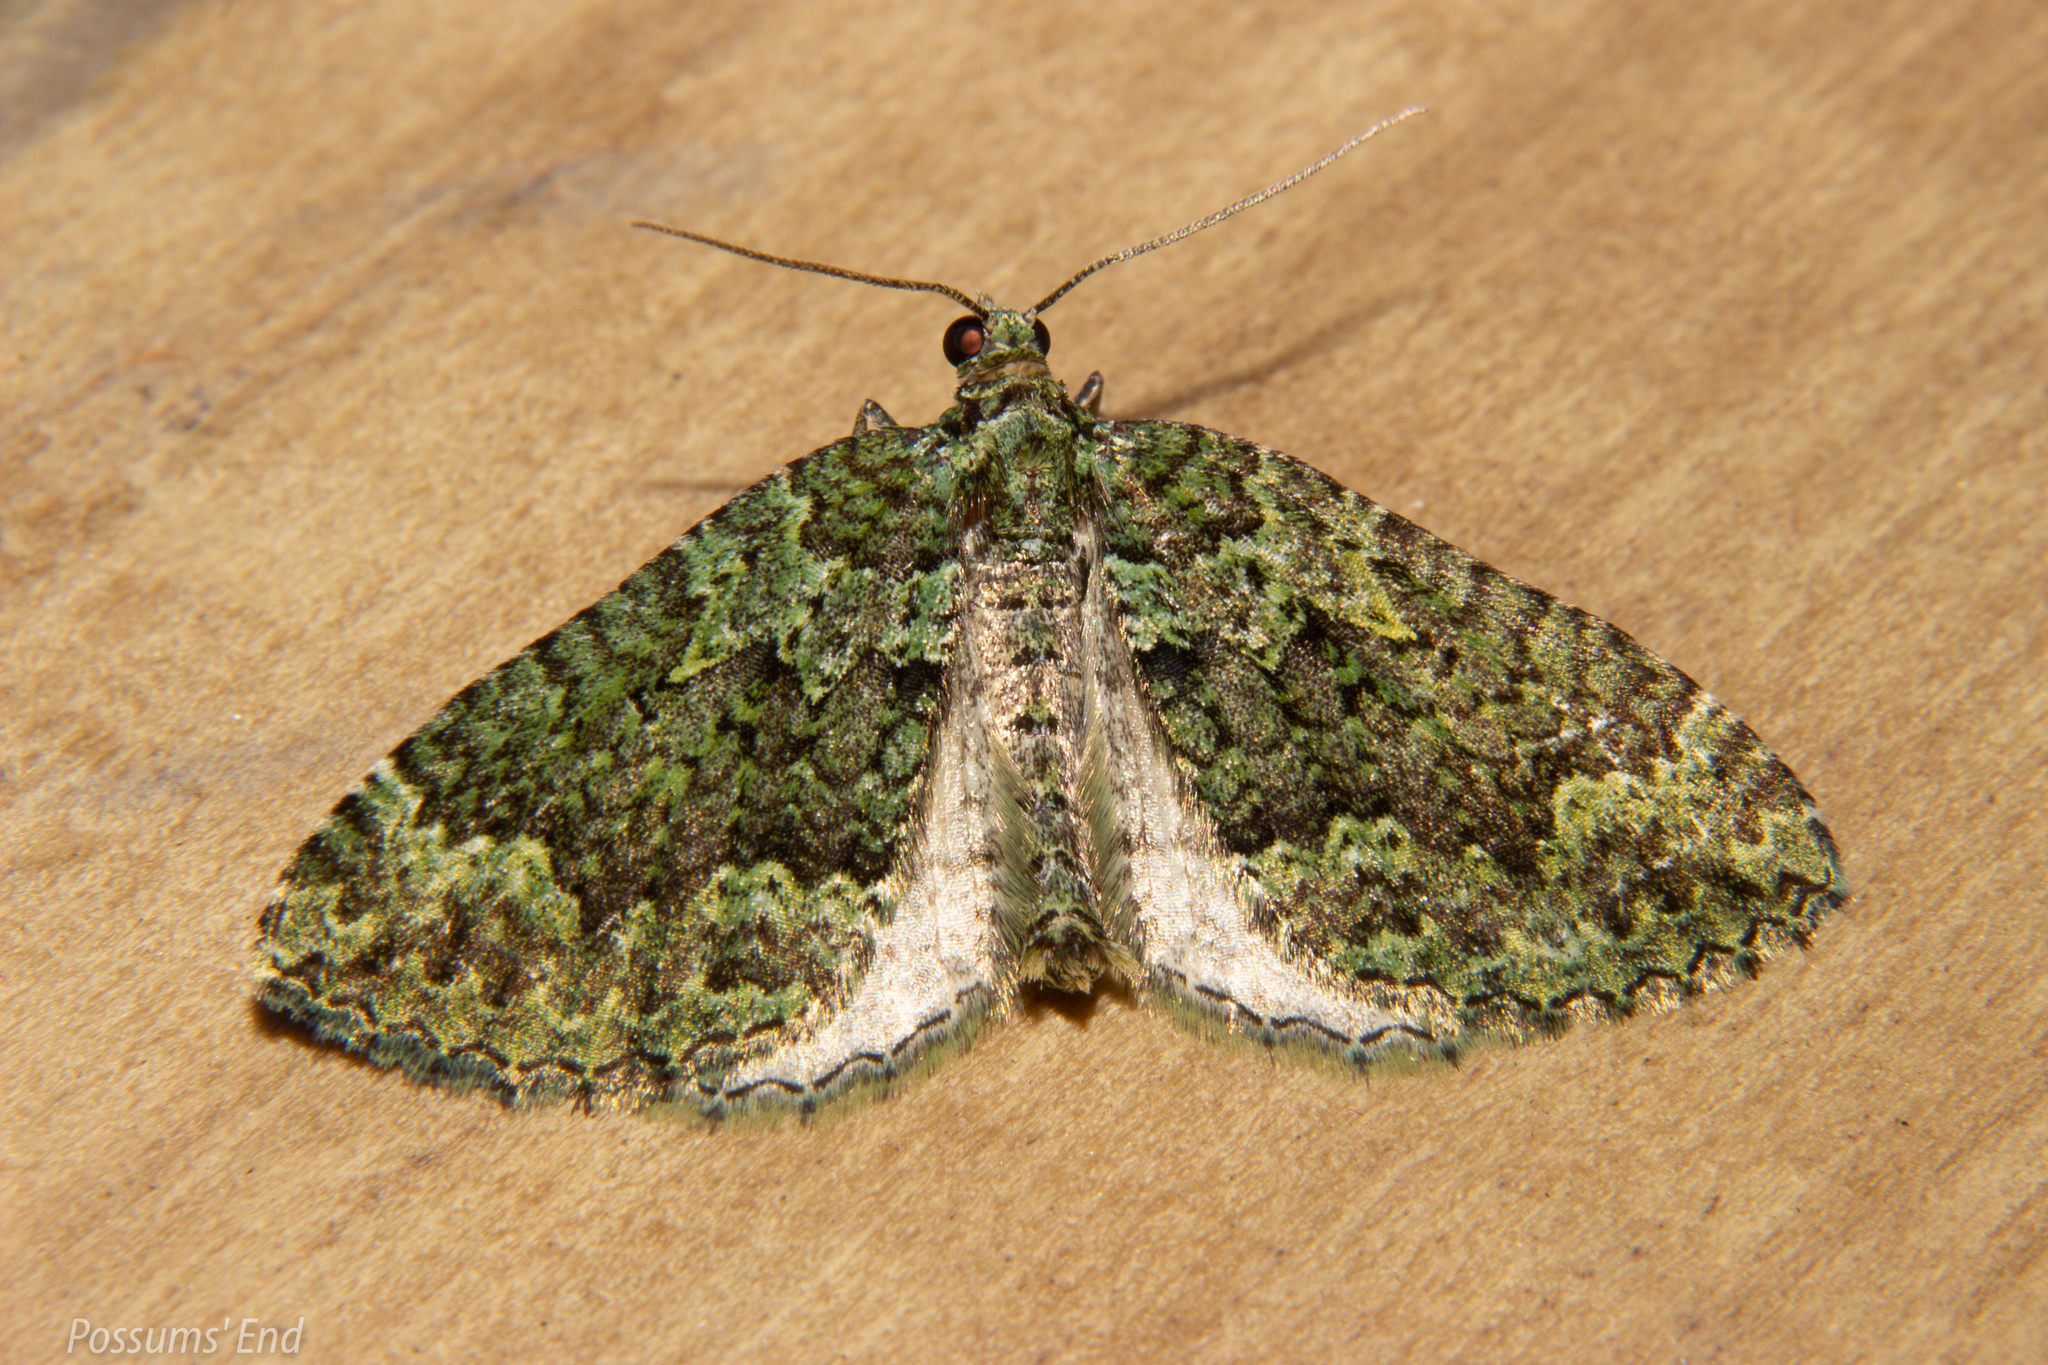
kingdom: Animalia
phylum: Arthropoda
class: Insecta
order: Lepidoptera
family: Geometridae
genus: Austrocidaria
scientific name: Austrocidaria callichlora
